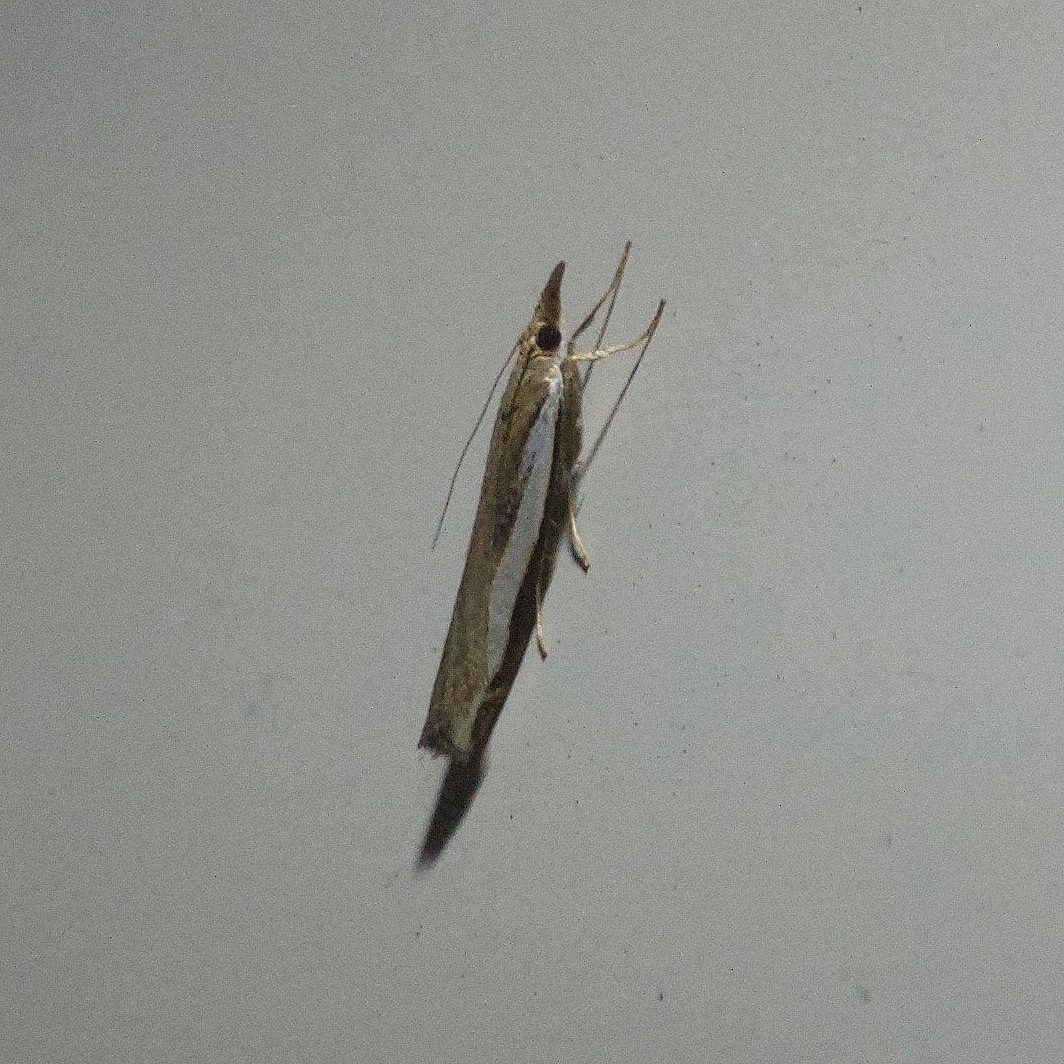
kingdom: Animalia
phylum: Arthropoda
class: Insecta
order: Lepidoptera
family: Crambidae
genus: Orocrambus
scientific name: Orocrambus flexuosellus
